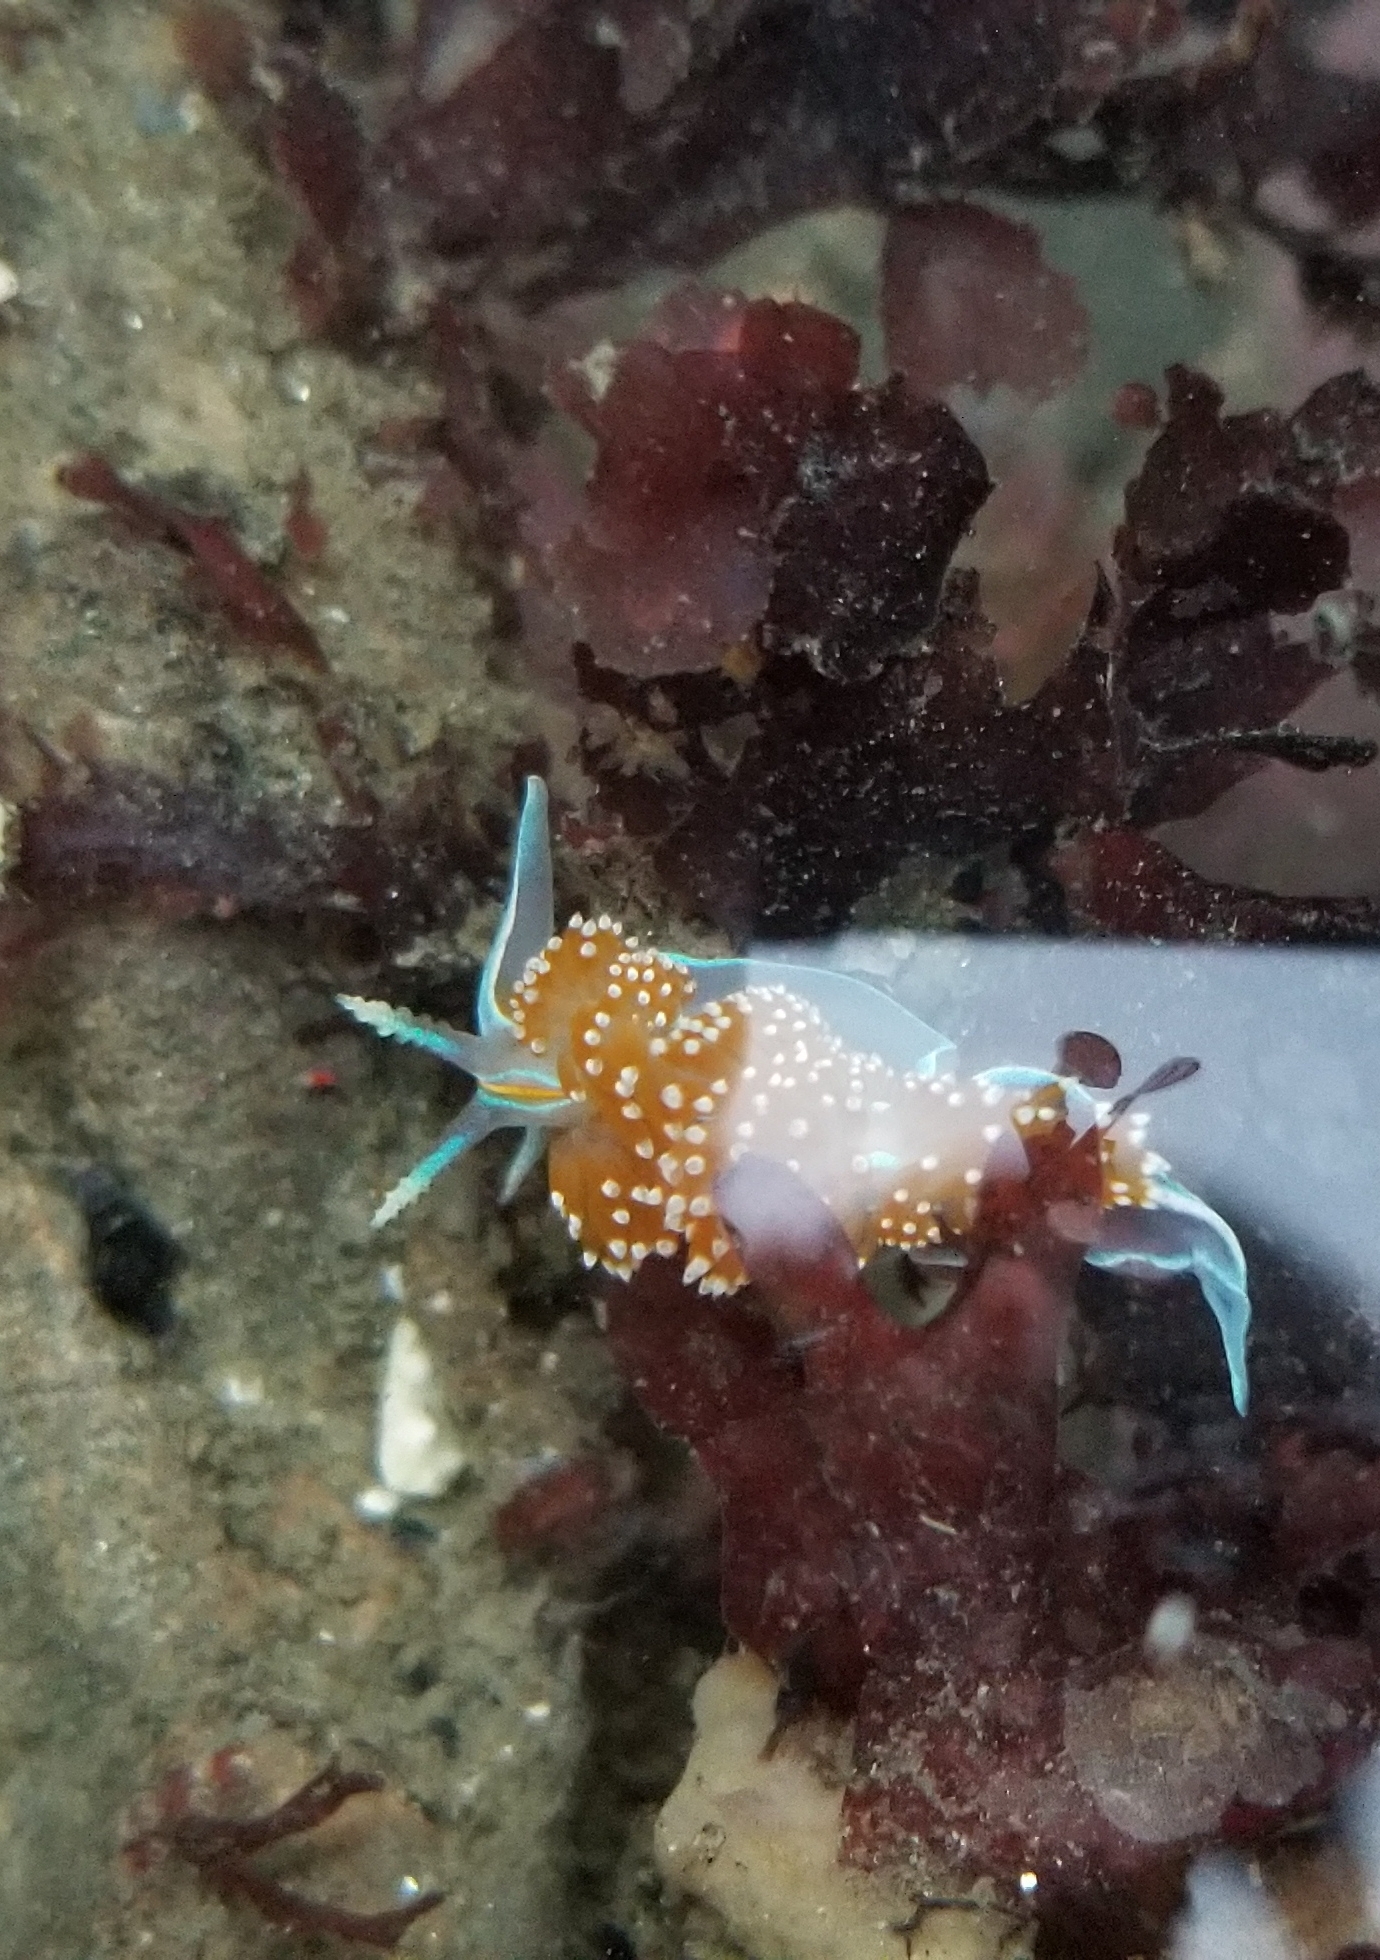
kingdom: Animalia
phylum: Mollusca
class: Gastropoda
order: Nudibranchia
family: Myrrhinidae
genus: Hermissenda
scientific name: Hermissenda opalescens
